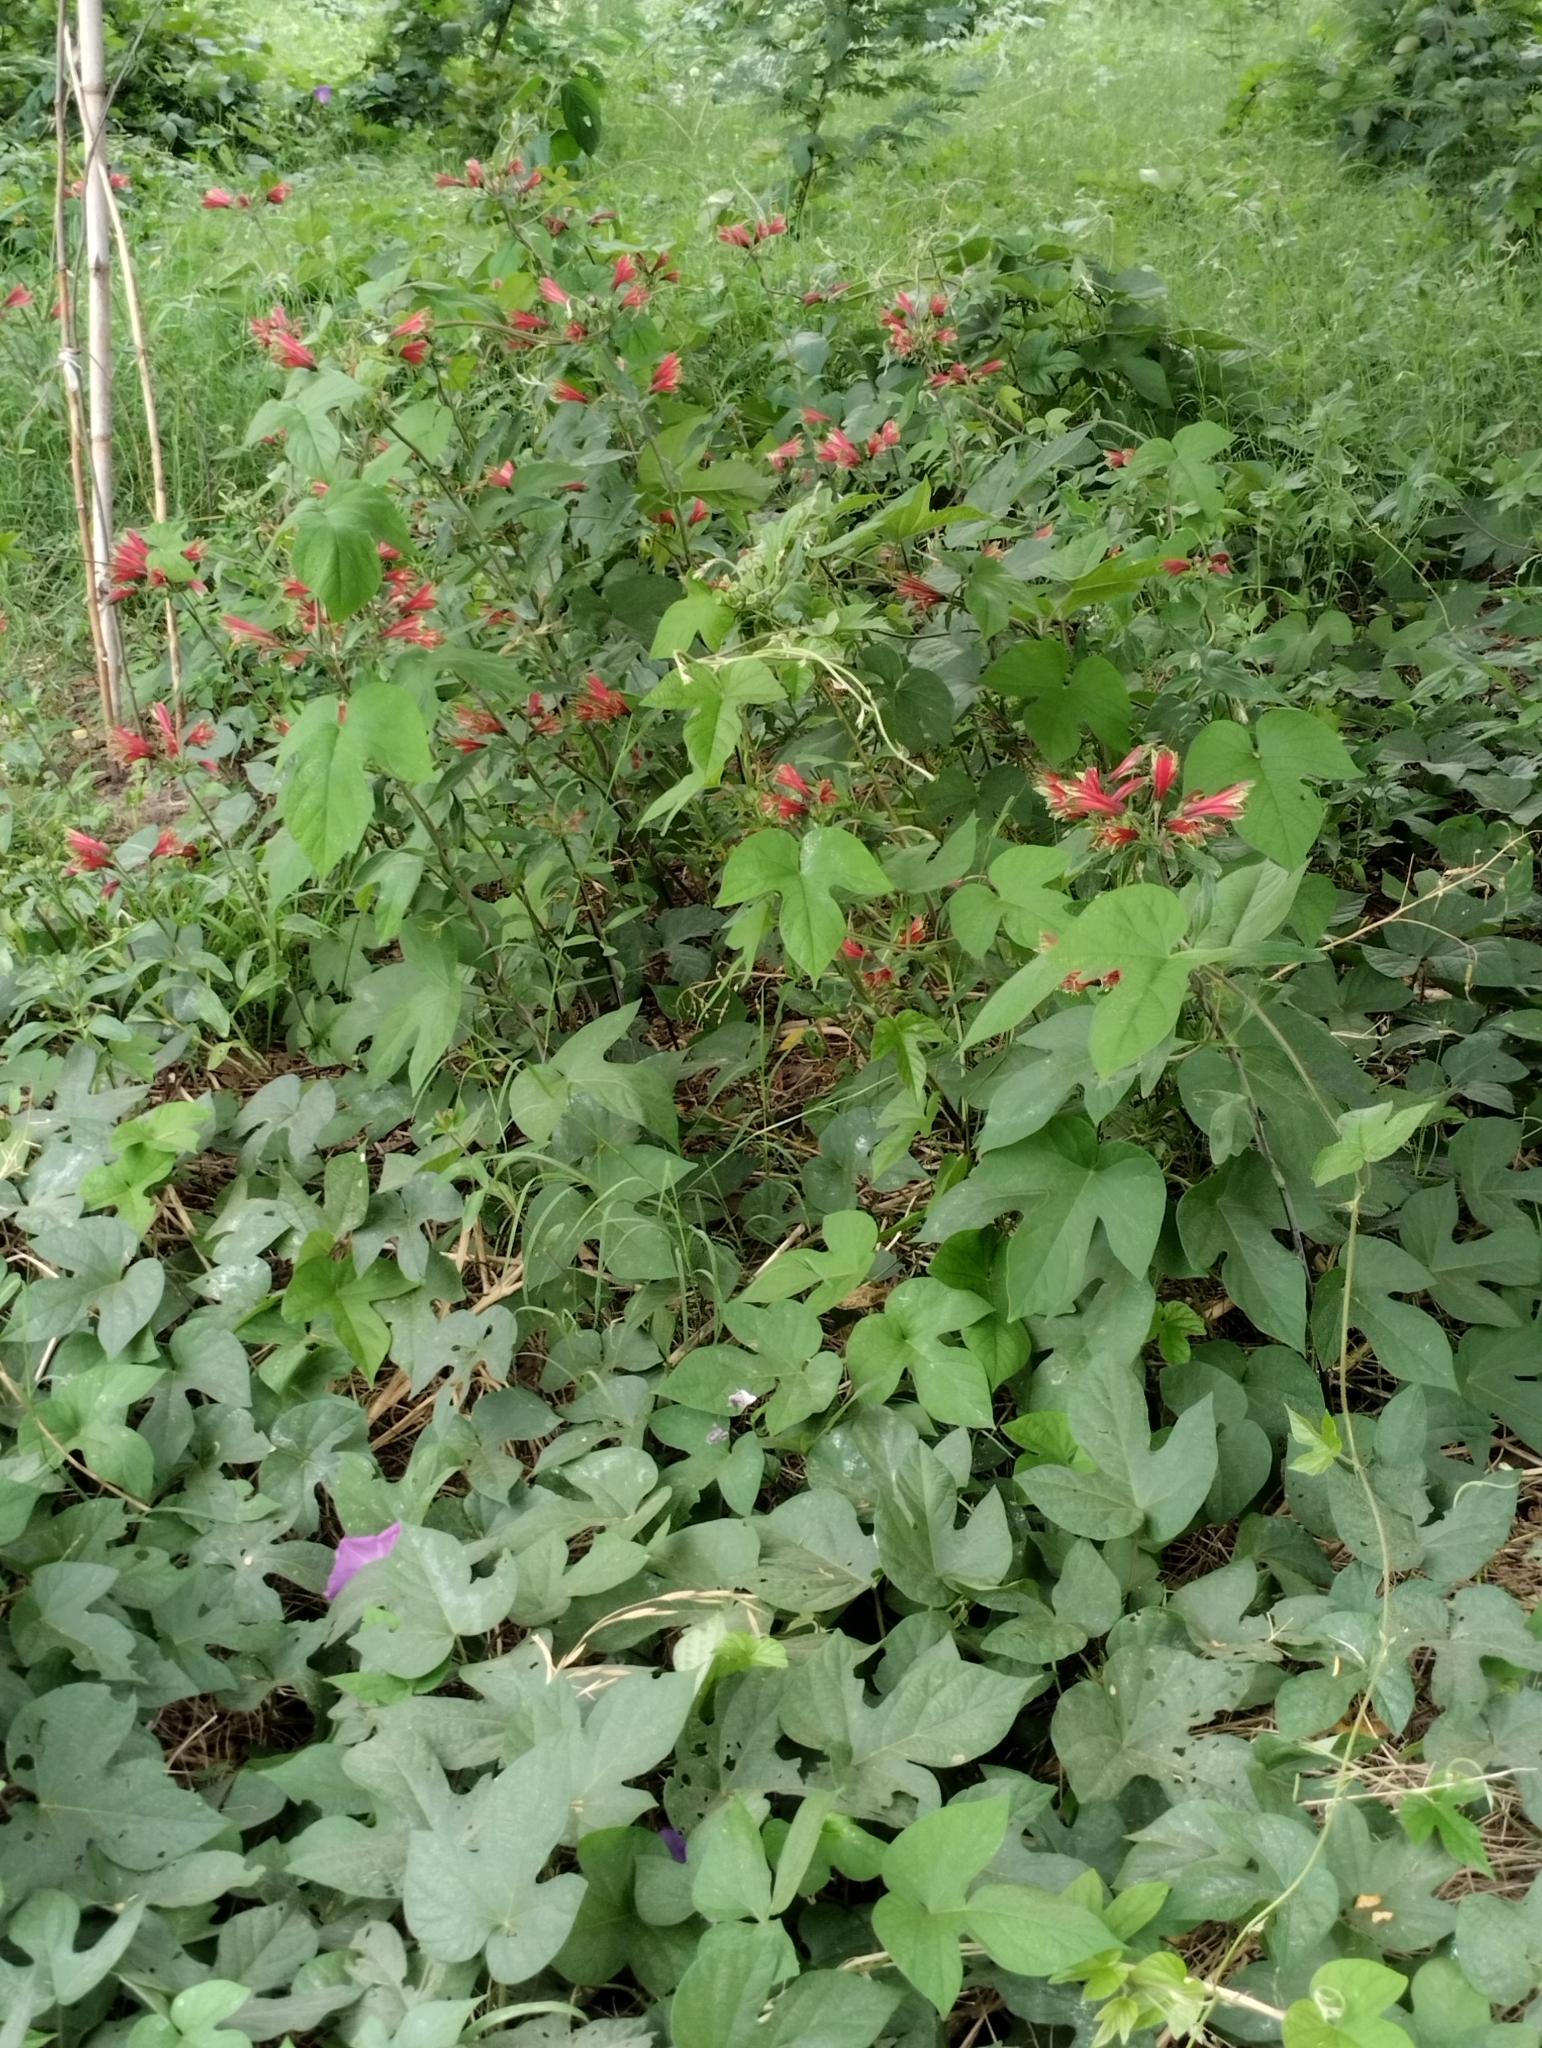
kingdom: Plantae
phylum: Tracheophyta
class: Liliopsida
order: Liliales
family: Alstroemeriaceae
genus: Alstroemeria
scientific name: Alstroemeria psittacina
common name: Peruvian-lily
